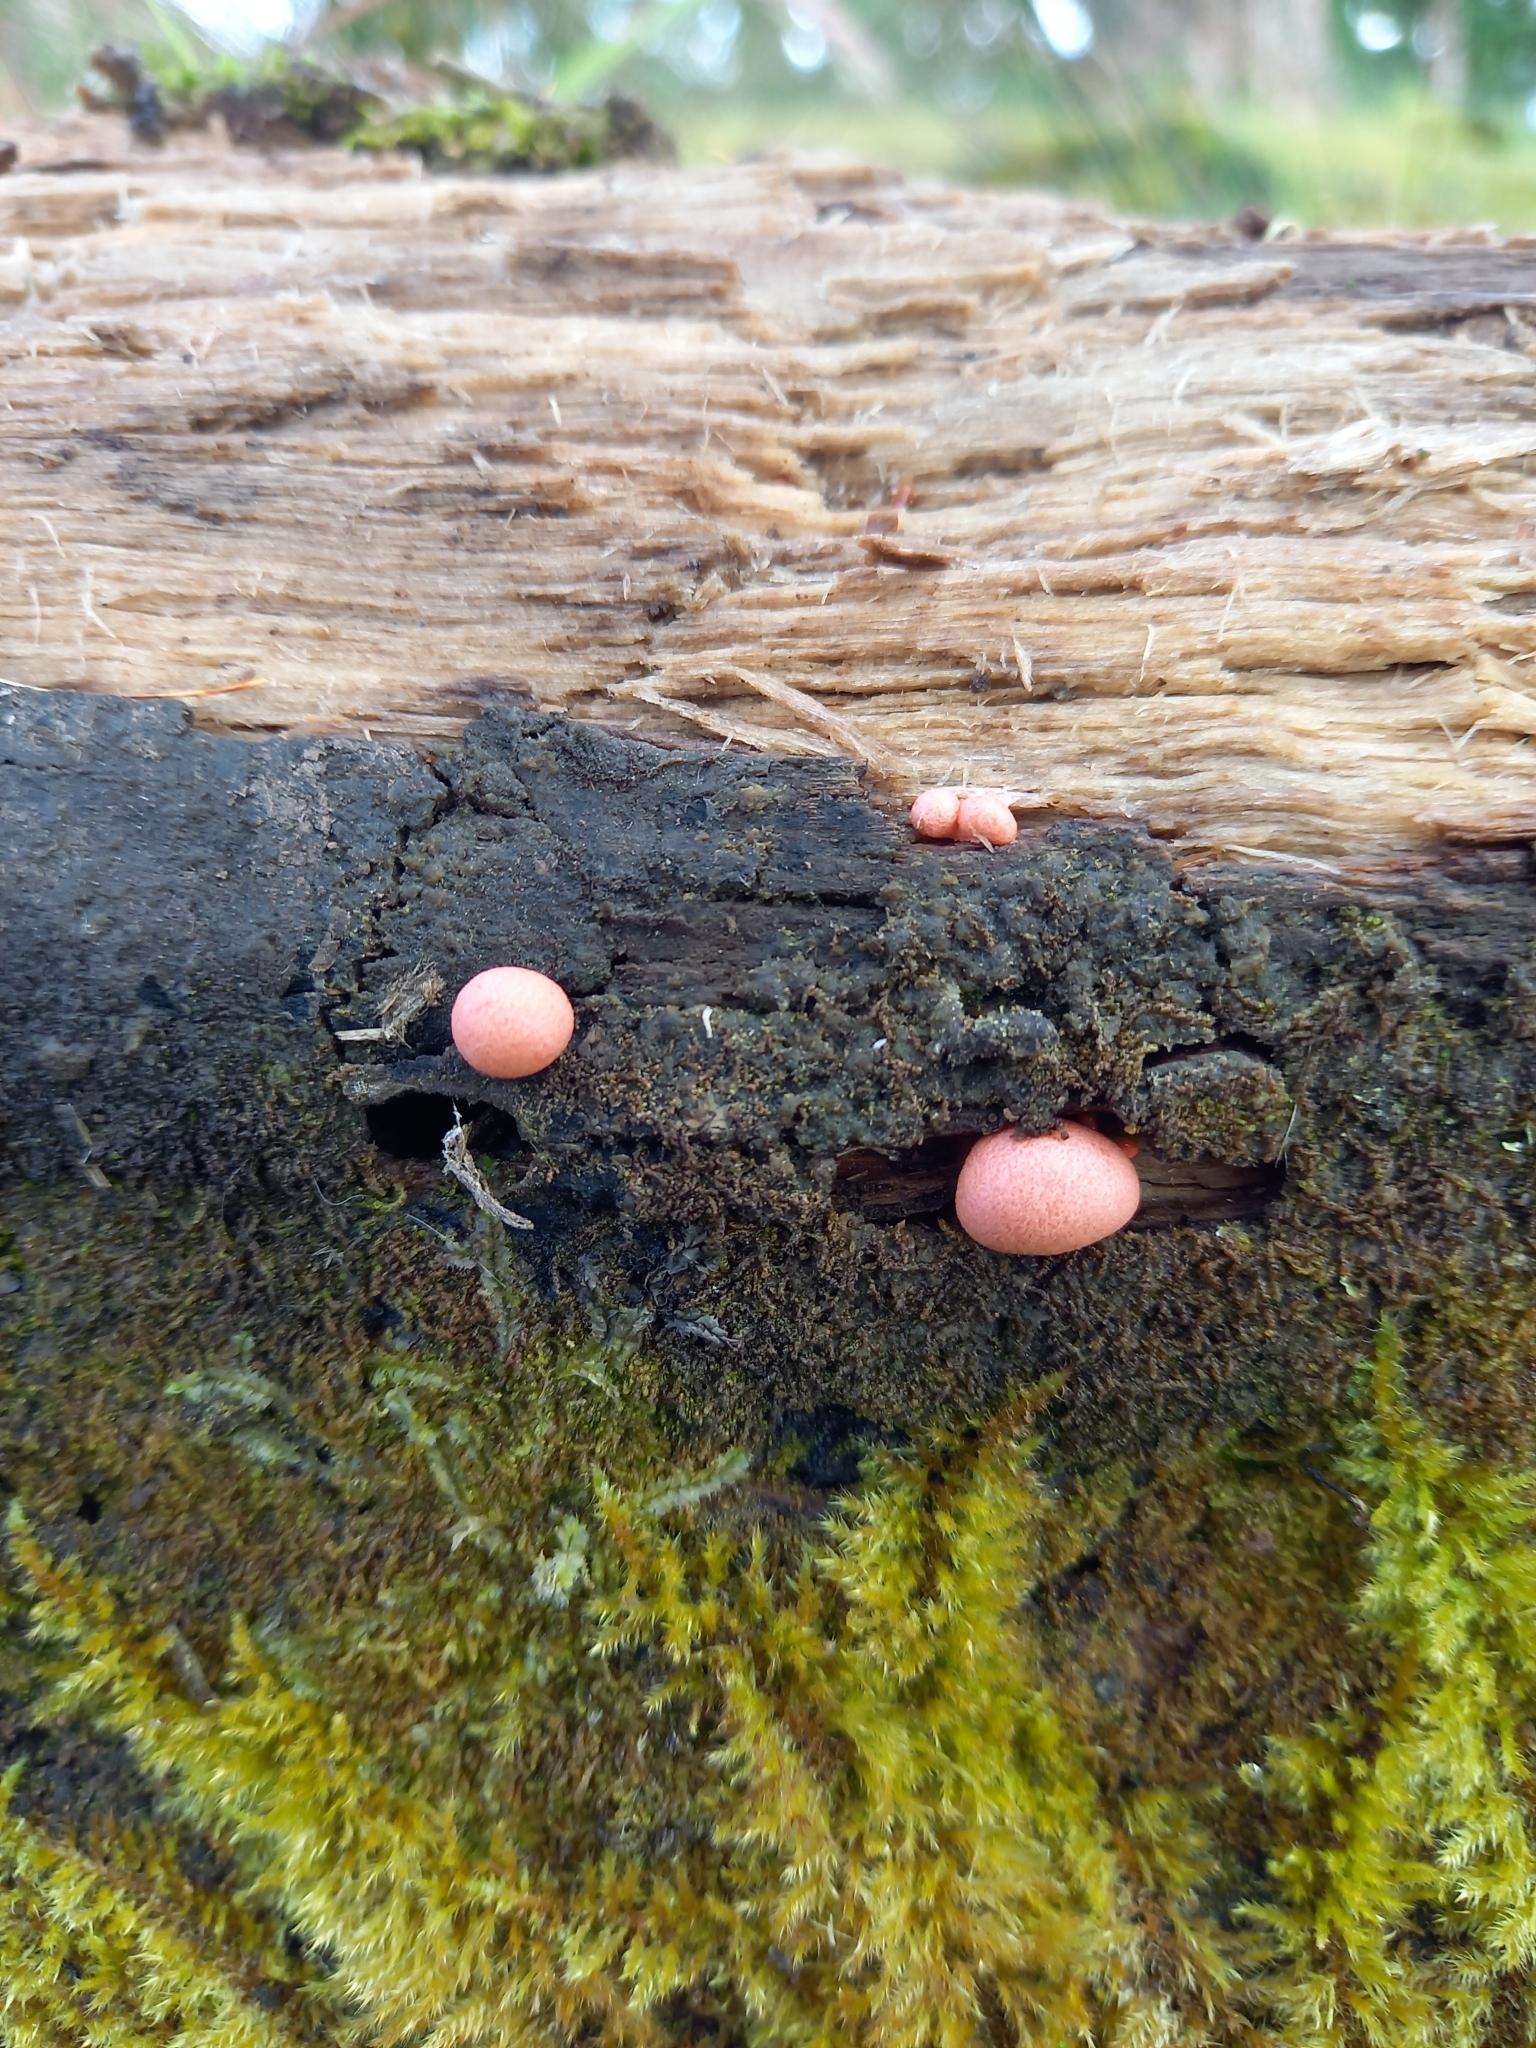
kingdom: Protozoa
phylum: Mycetozoa
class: Myxomycetes
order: Cribrariales
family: Tubiferaceae
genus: Lycogala
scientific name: Lycogala epidendrum
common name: Wolf's milk
